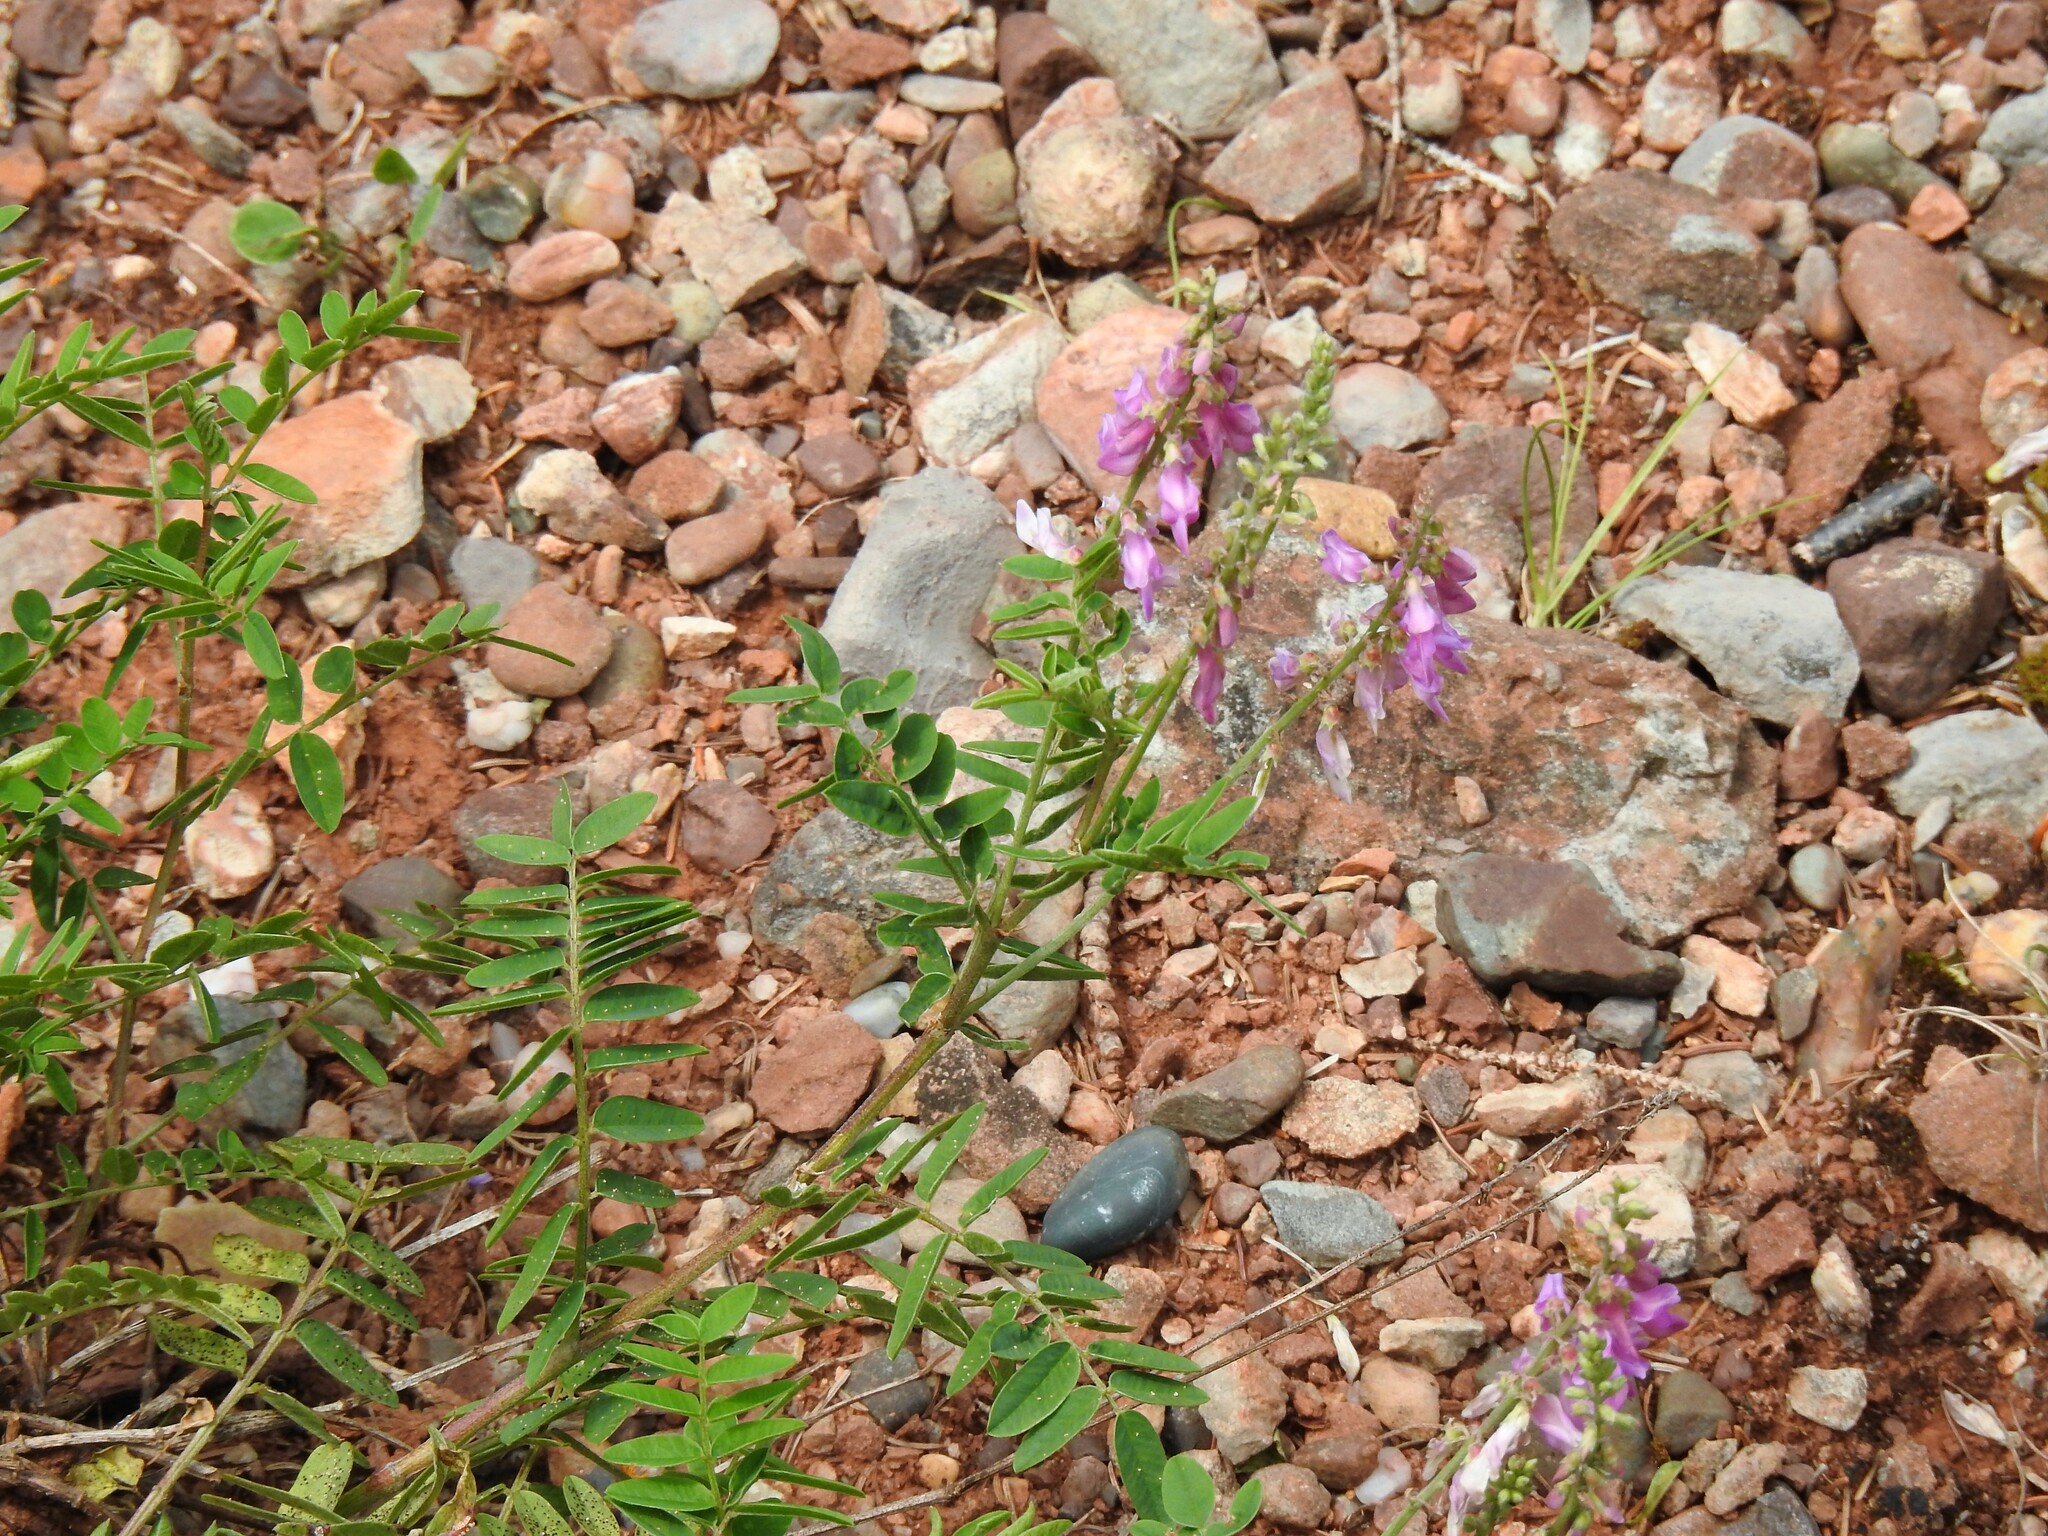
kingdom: Plantae
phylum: Tracheophyta
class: Magnoliopsida
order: Fabales
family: Fabaceae
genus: Hedysarum
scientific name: Hedysarum alpinum
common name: Alpine sweet-vetch
